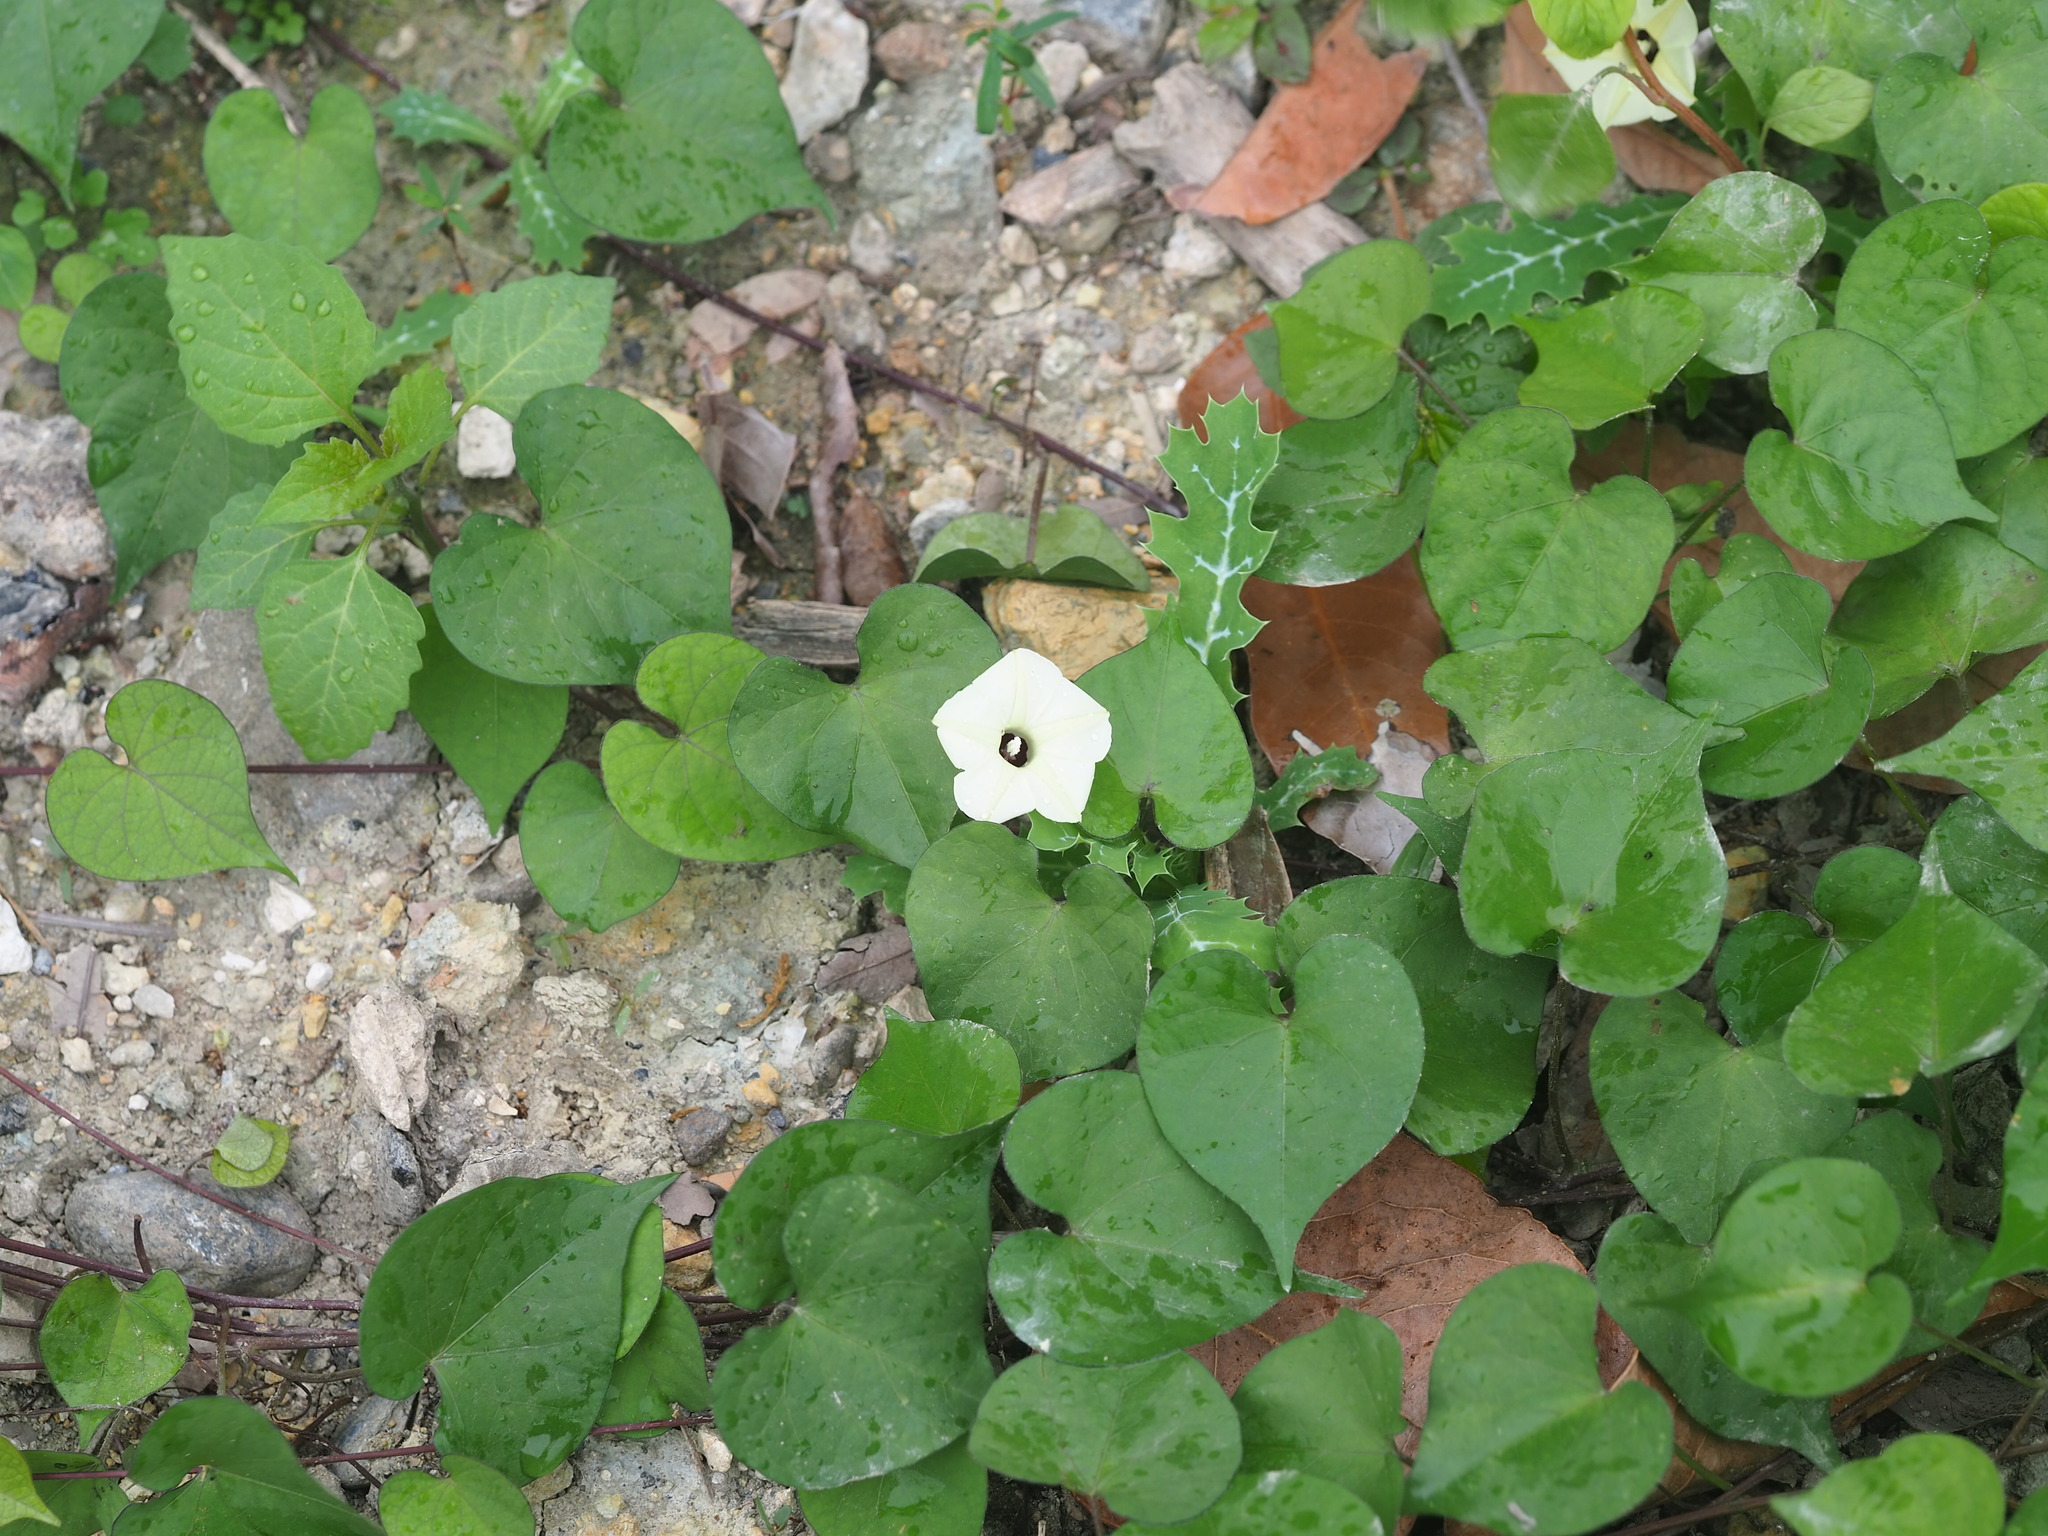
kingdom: Plantae
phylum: Tracheophyta
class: Magnoliopsida
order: Solanales
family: Convolvulaceae
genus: Ipomoea
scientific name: Ipomoea obscura
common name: Obscure morning-glory
